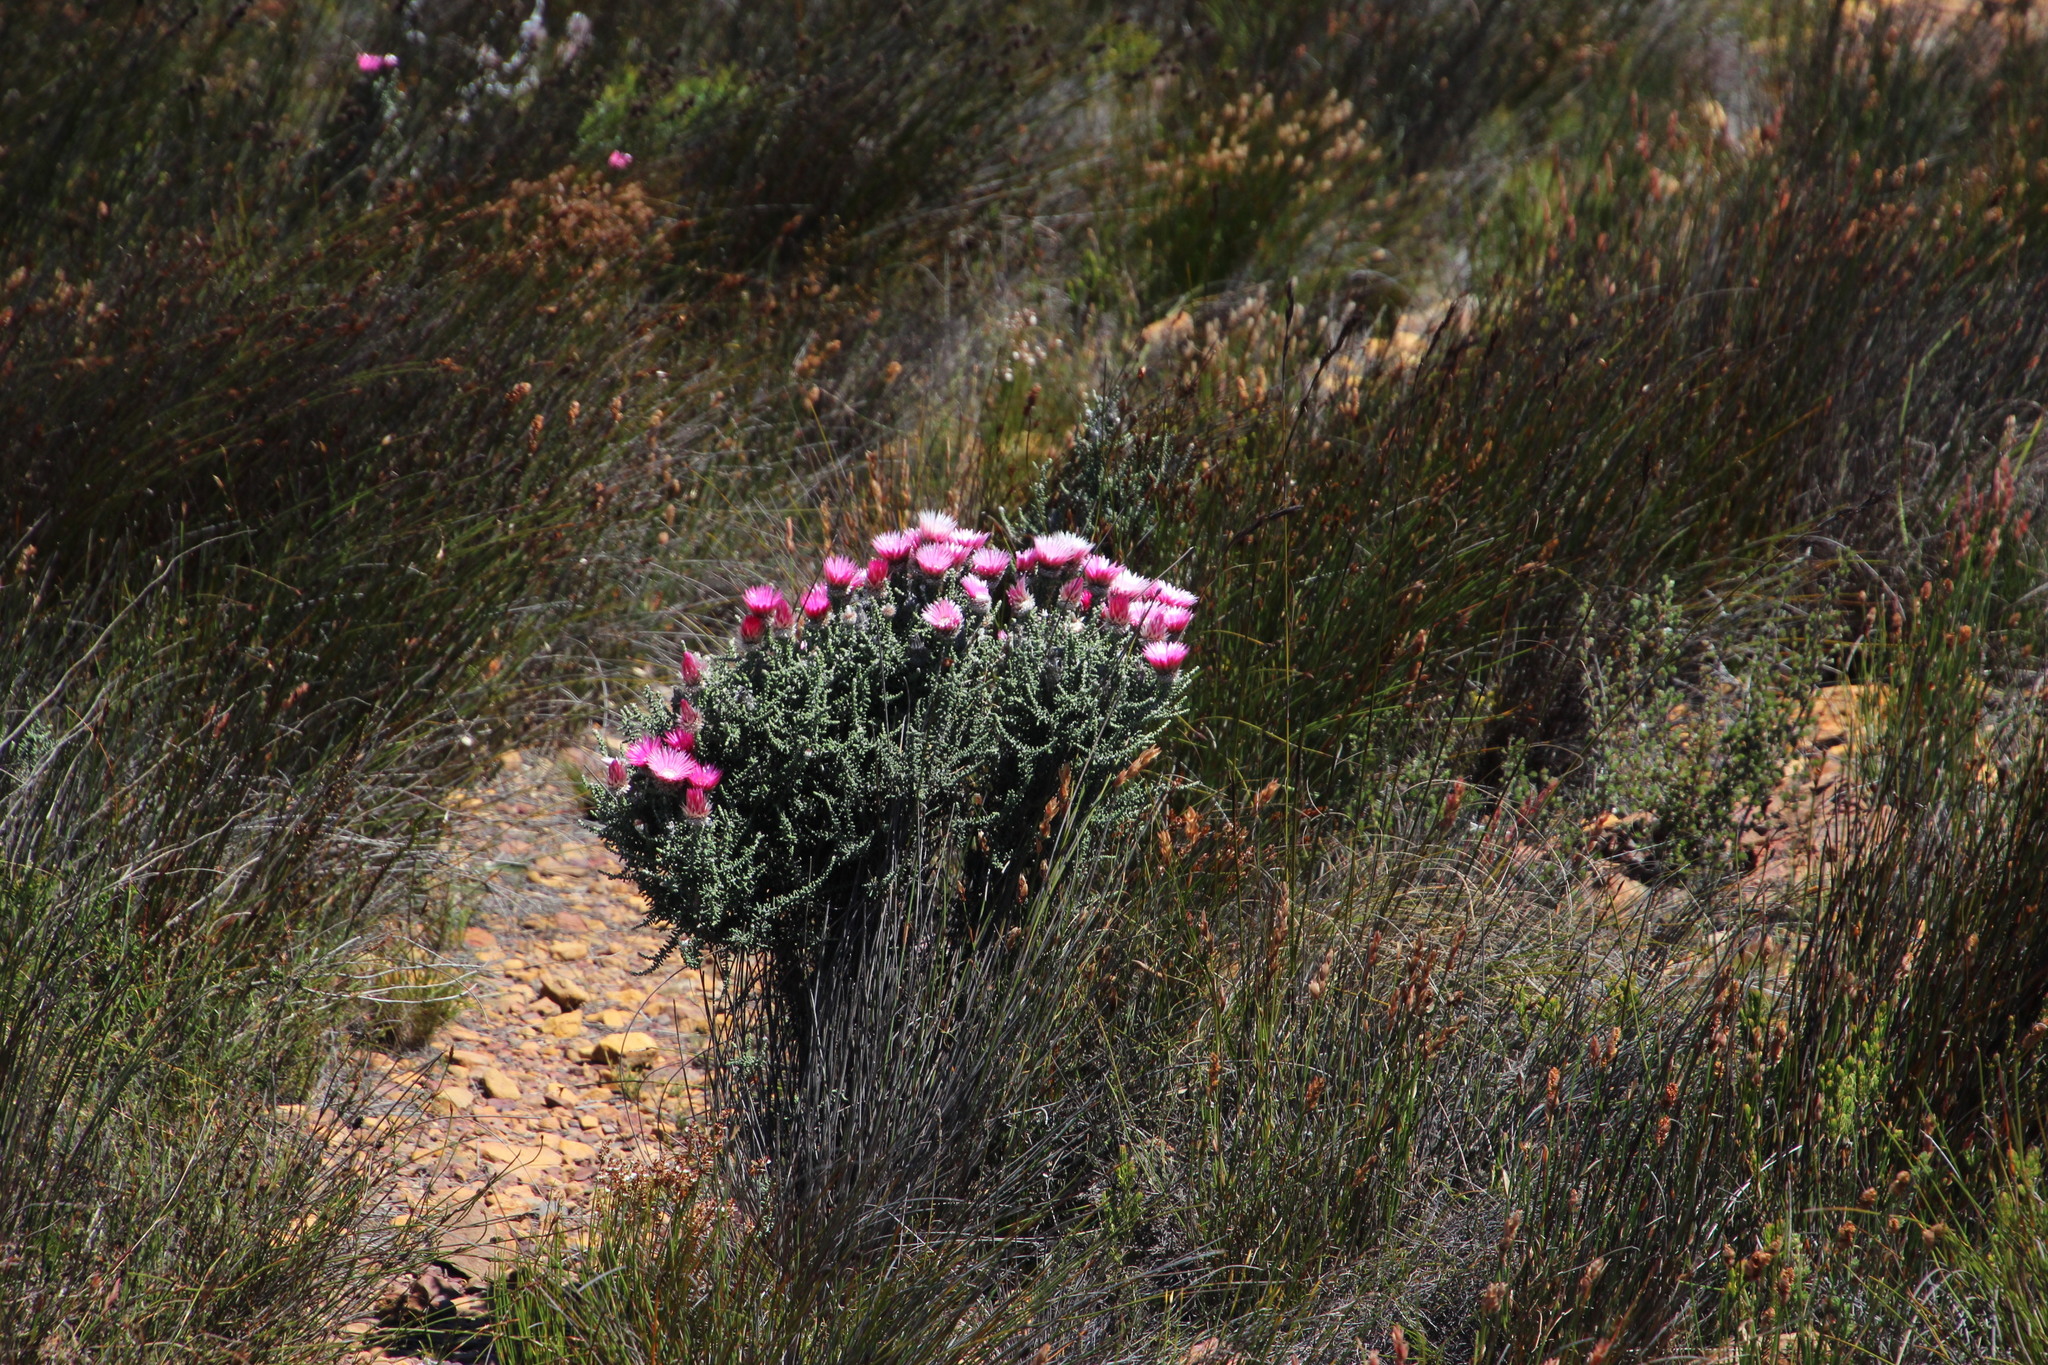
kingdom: Plantae
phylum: Tracheophyta
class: Magnoliopsida
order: Asterales
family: Asteraceae
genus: Phaenocoma
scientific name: Phaenocoma prolifera
